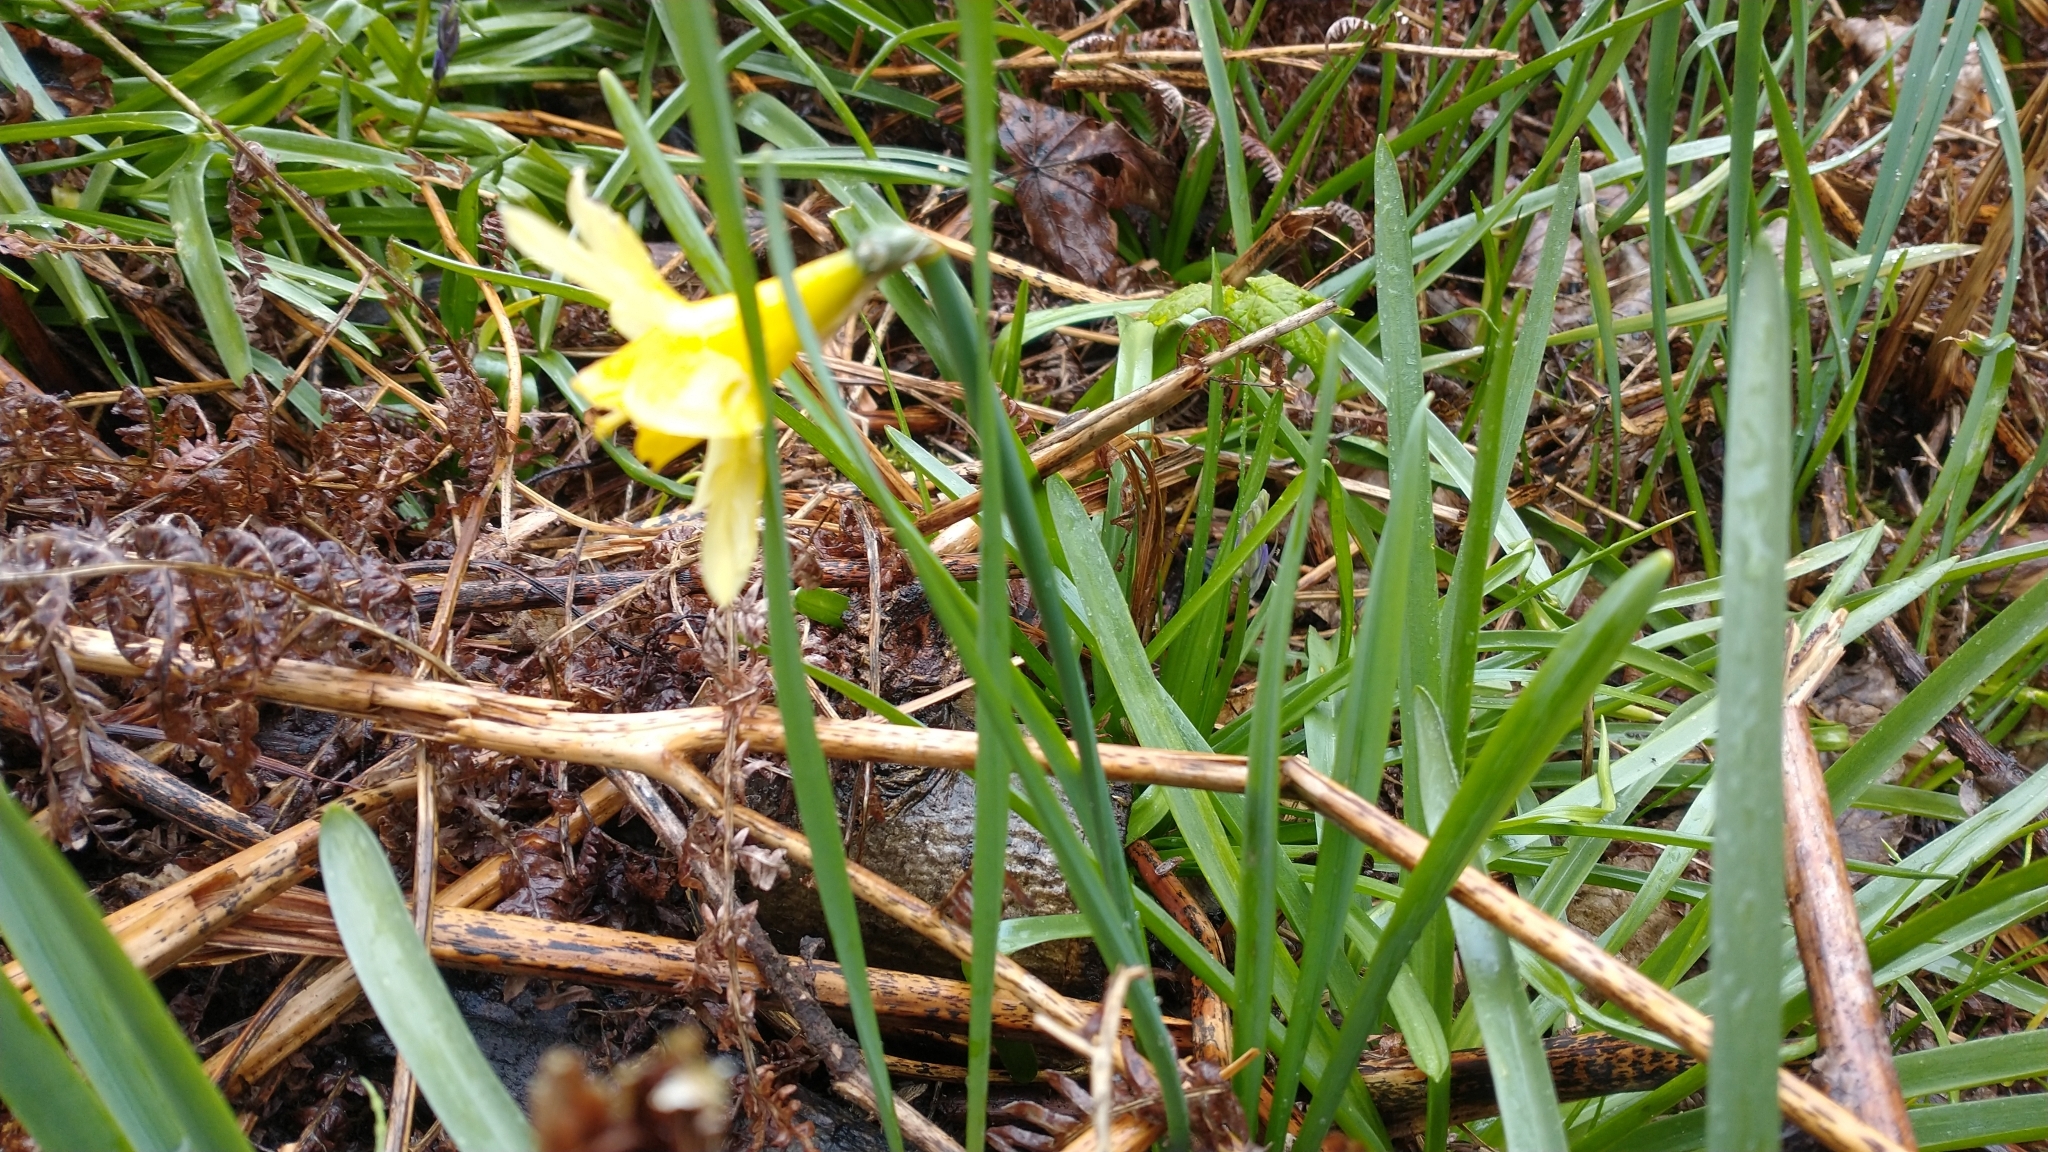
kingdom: Plantae
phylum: Tracheophyta
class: Liliopsida
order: Asparagales
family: Amaryllidaceae
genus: Narcissus
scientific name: Narcissus pseudonarcissus
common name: Daffodil
